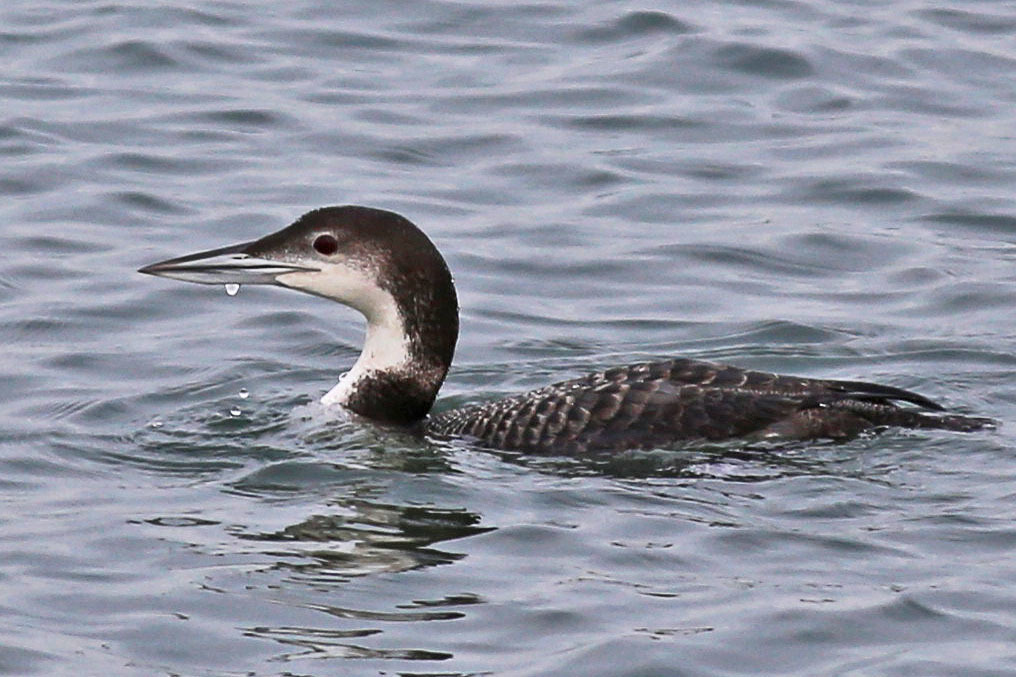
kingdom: Animalia
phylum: Chordata
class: Aves
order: Gaviiformes
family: Gaviidae
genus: Gavia
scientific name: Gavia immer
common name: Common loon
